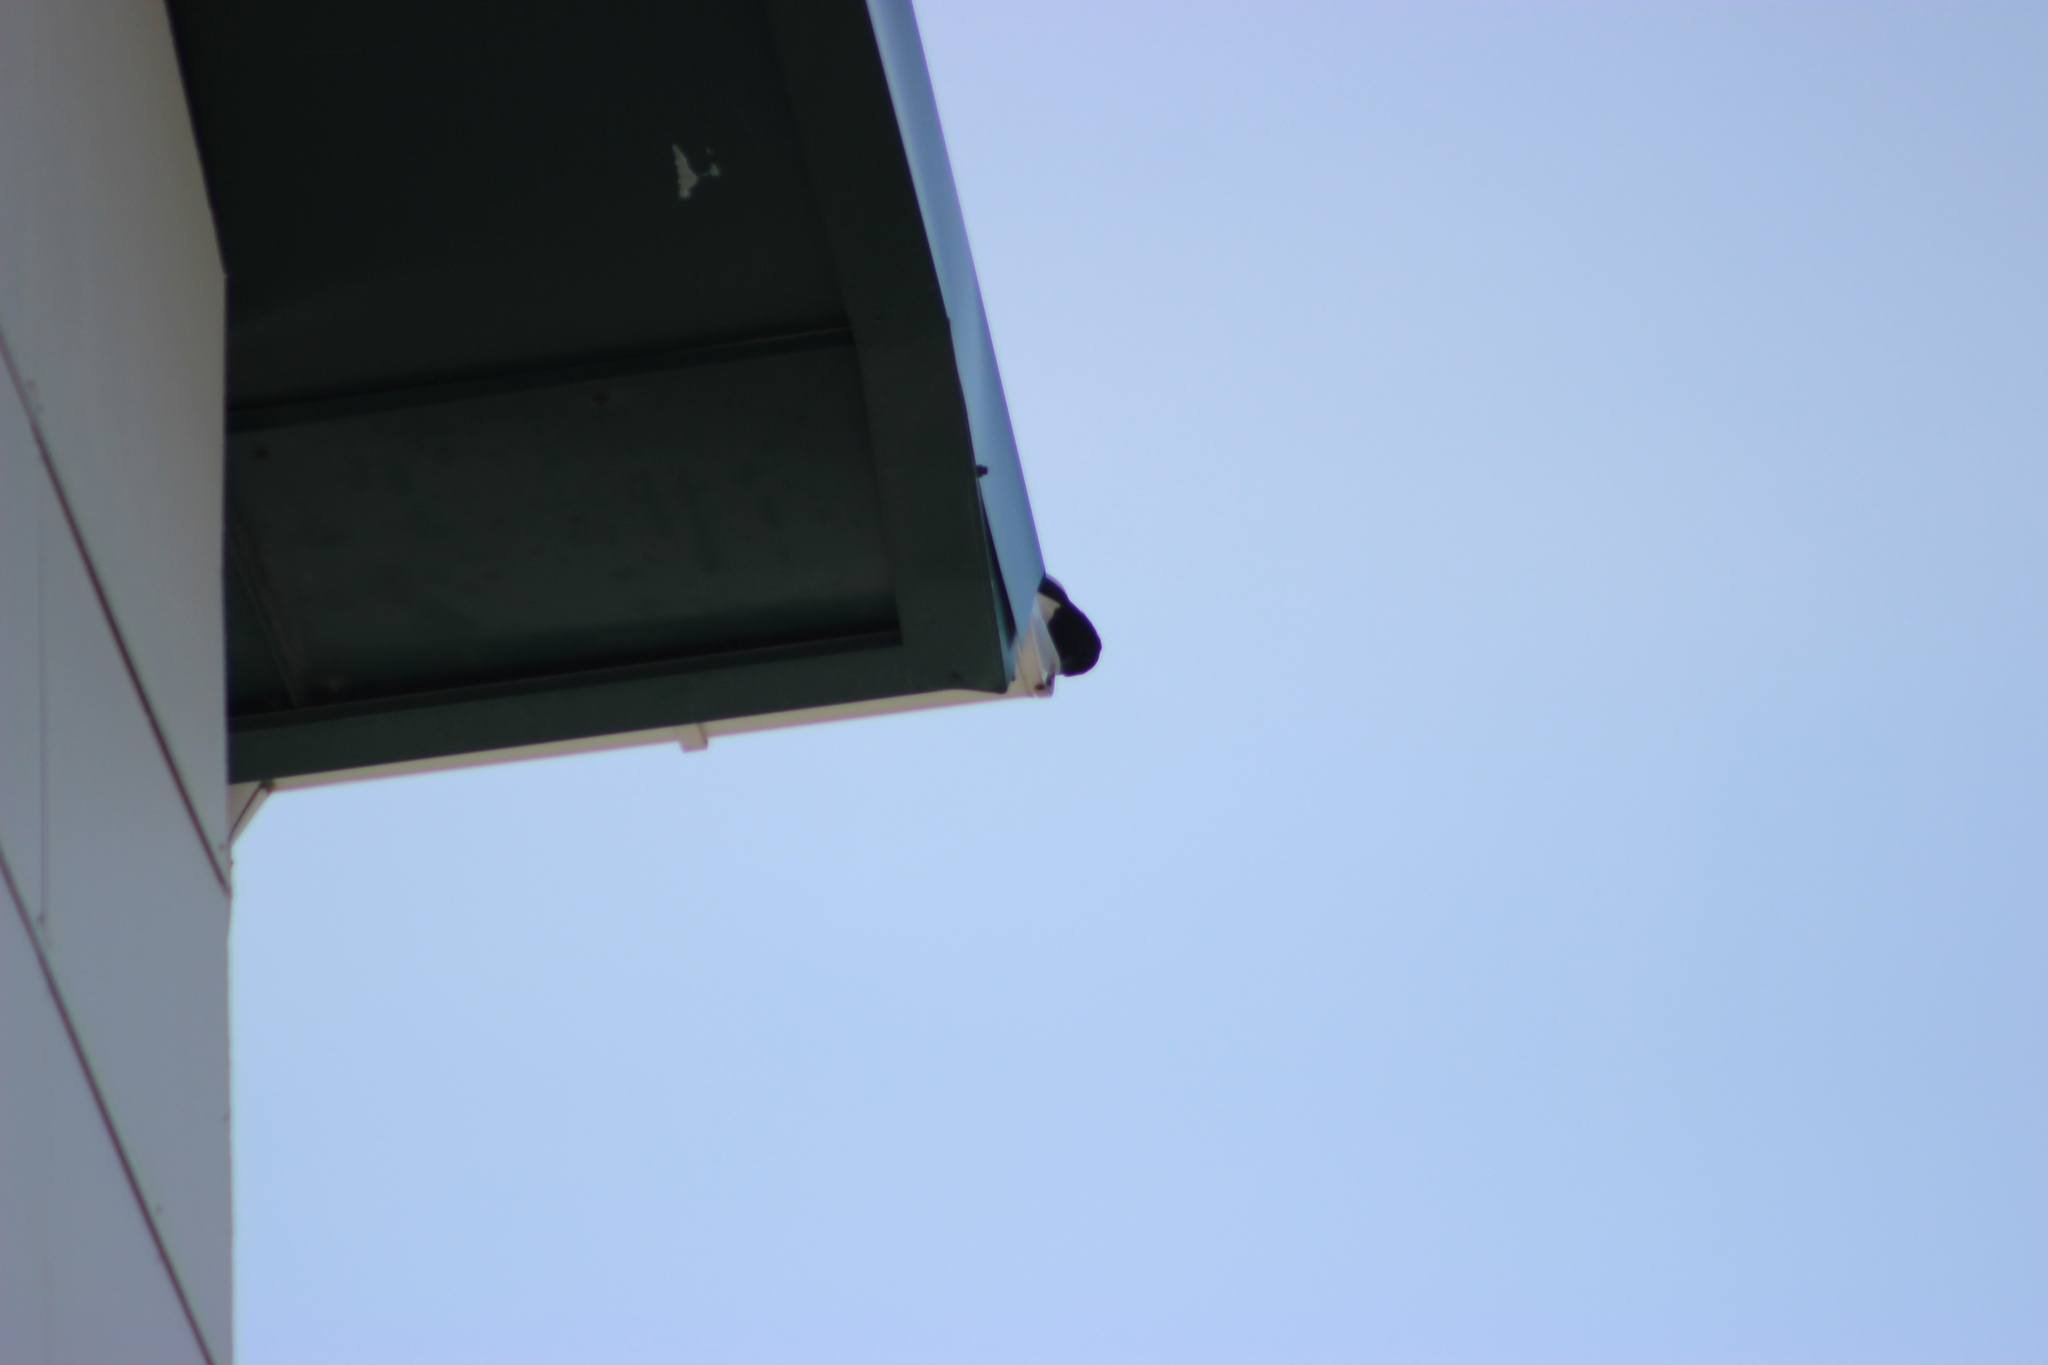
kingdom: Animalia
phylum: Chordata
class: Aves
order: Passeriformes
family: Corvidae
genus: Pica
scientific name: Pica pica
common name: Eurasian magpie
